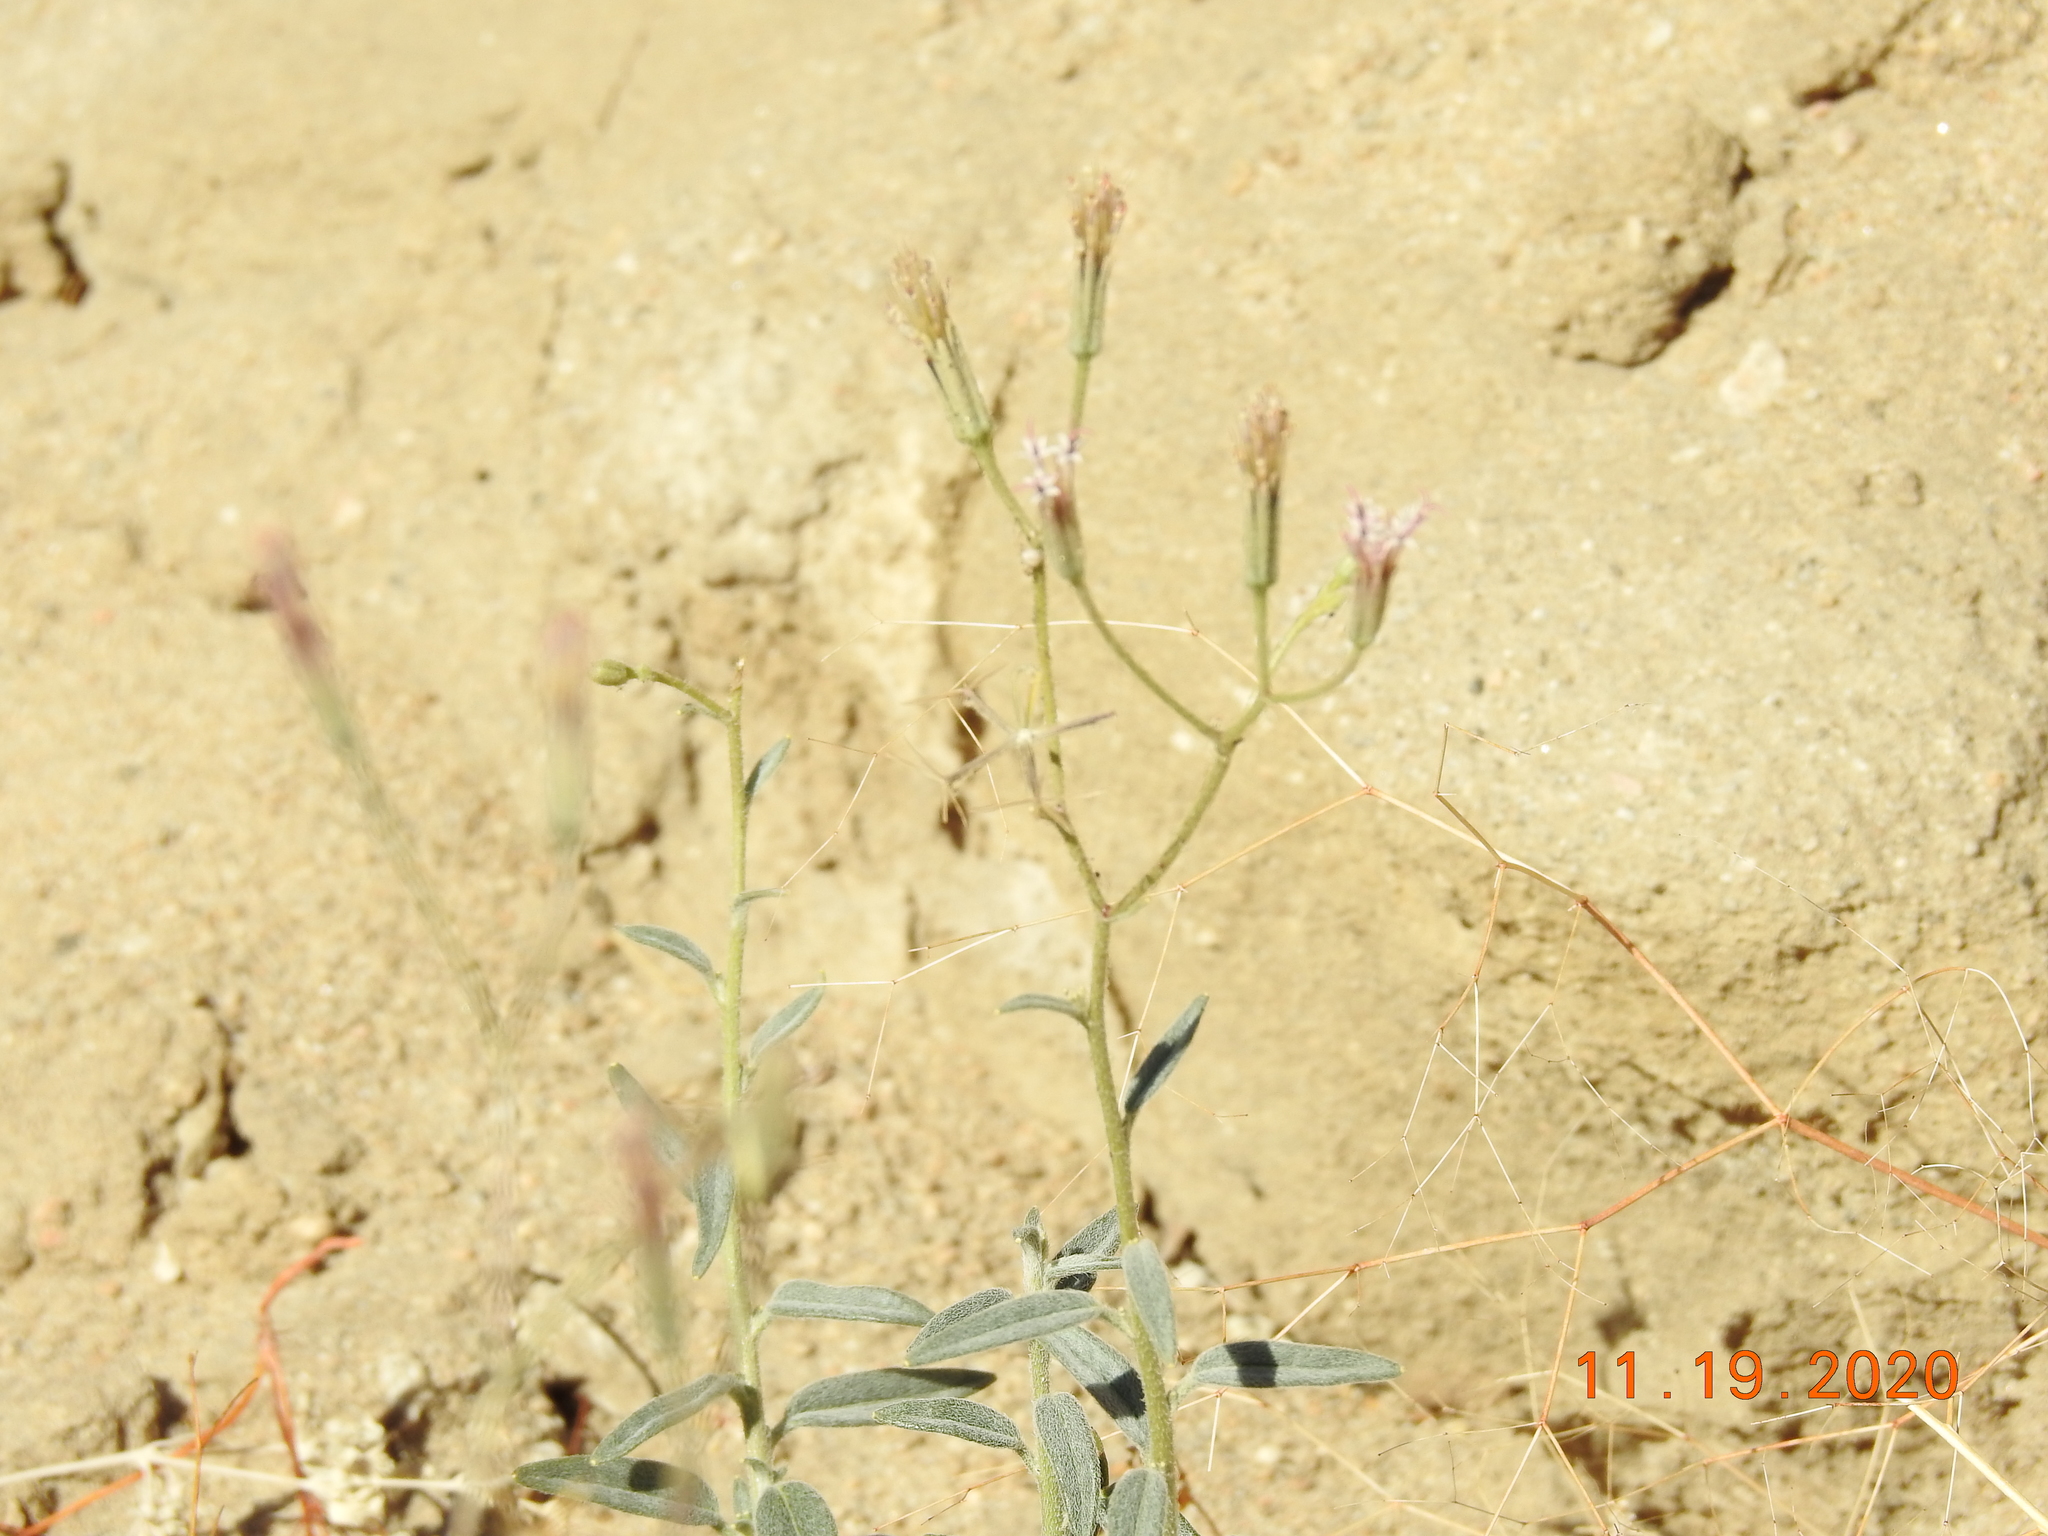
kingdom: Plantae
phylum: Tracheophyta
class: Magnoliopsida
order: Asterales
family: Asteraceae
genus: Palafoxia
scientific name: Palafoxia arida
